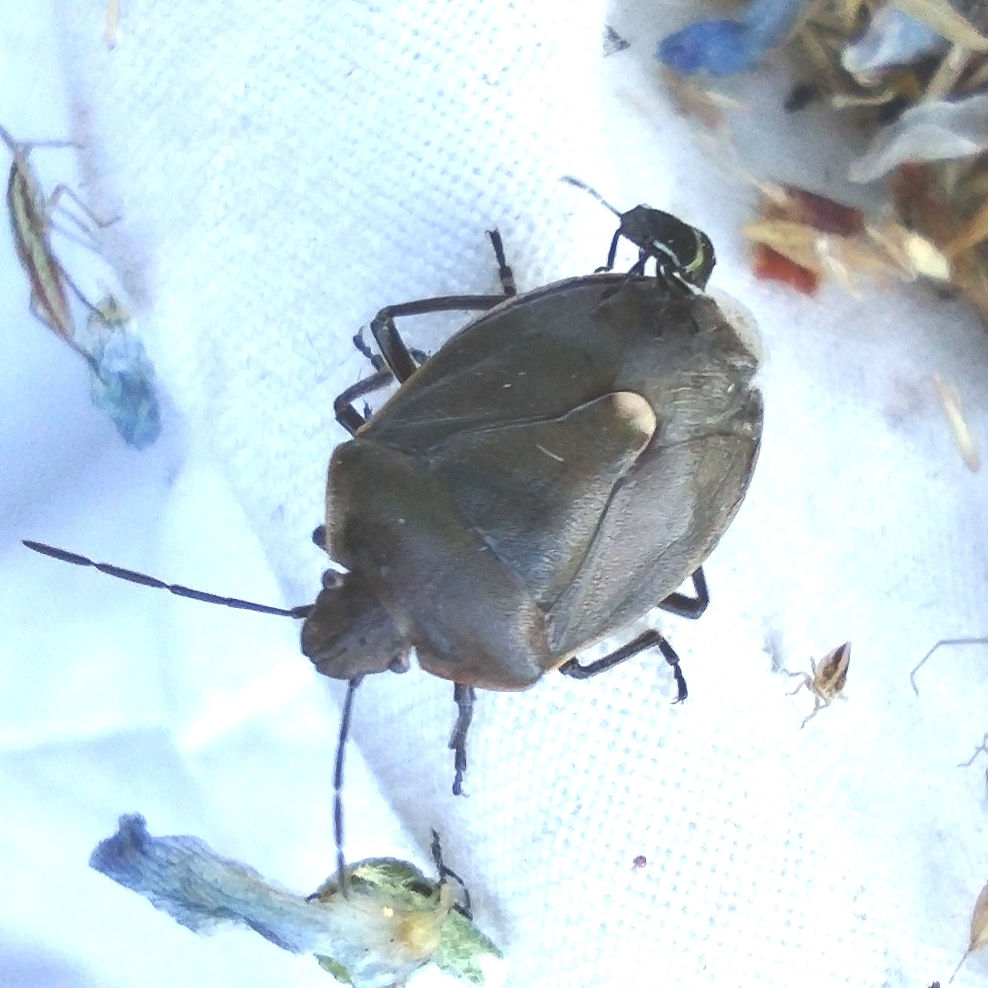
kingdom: Animalia
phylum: Arthropoda
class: Insecta
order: Hemiptera
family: Pentatomidae
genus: Chlorochroa
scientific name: Chlorochroa pinicola
